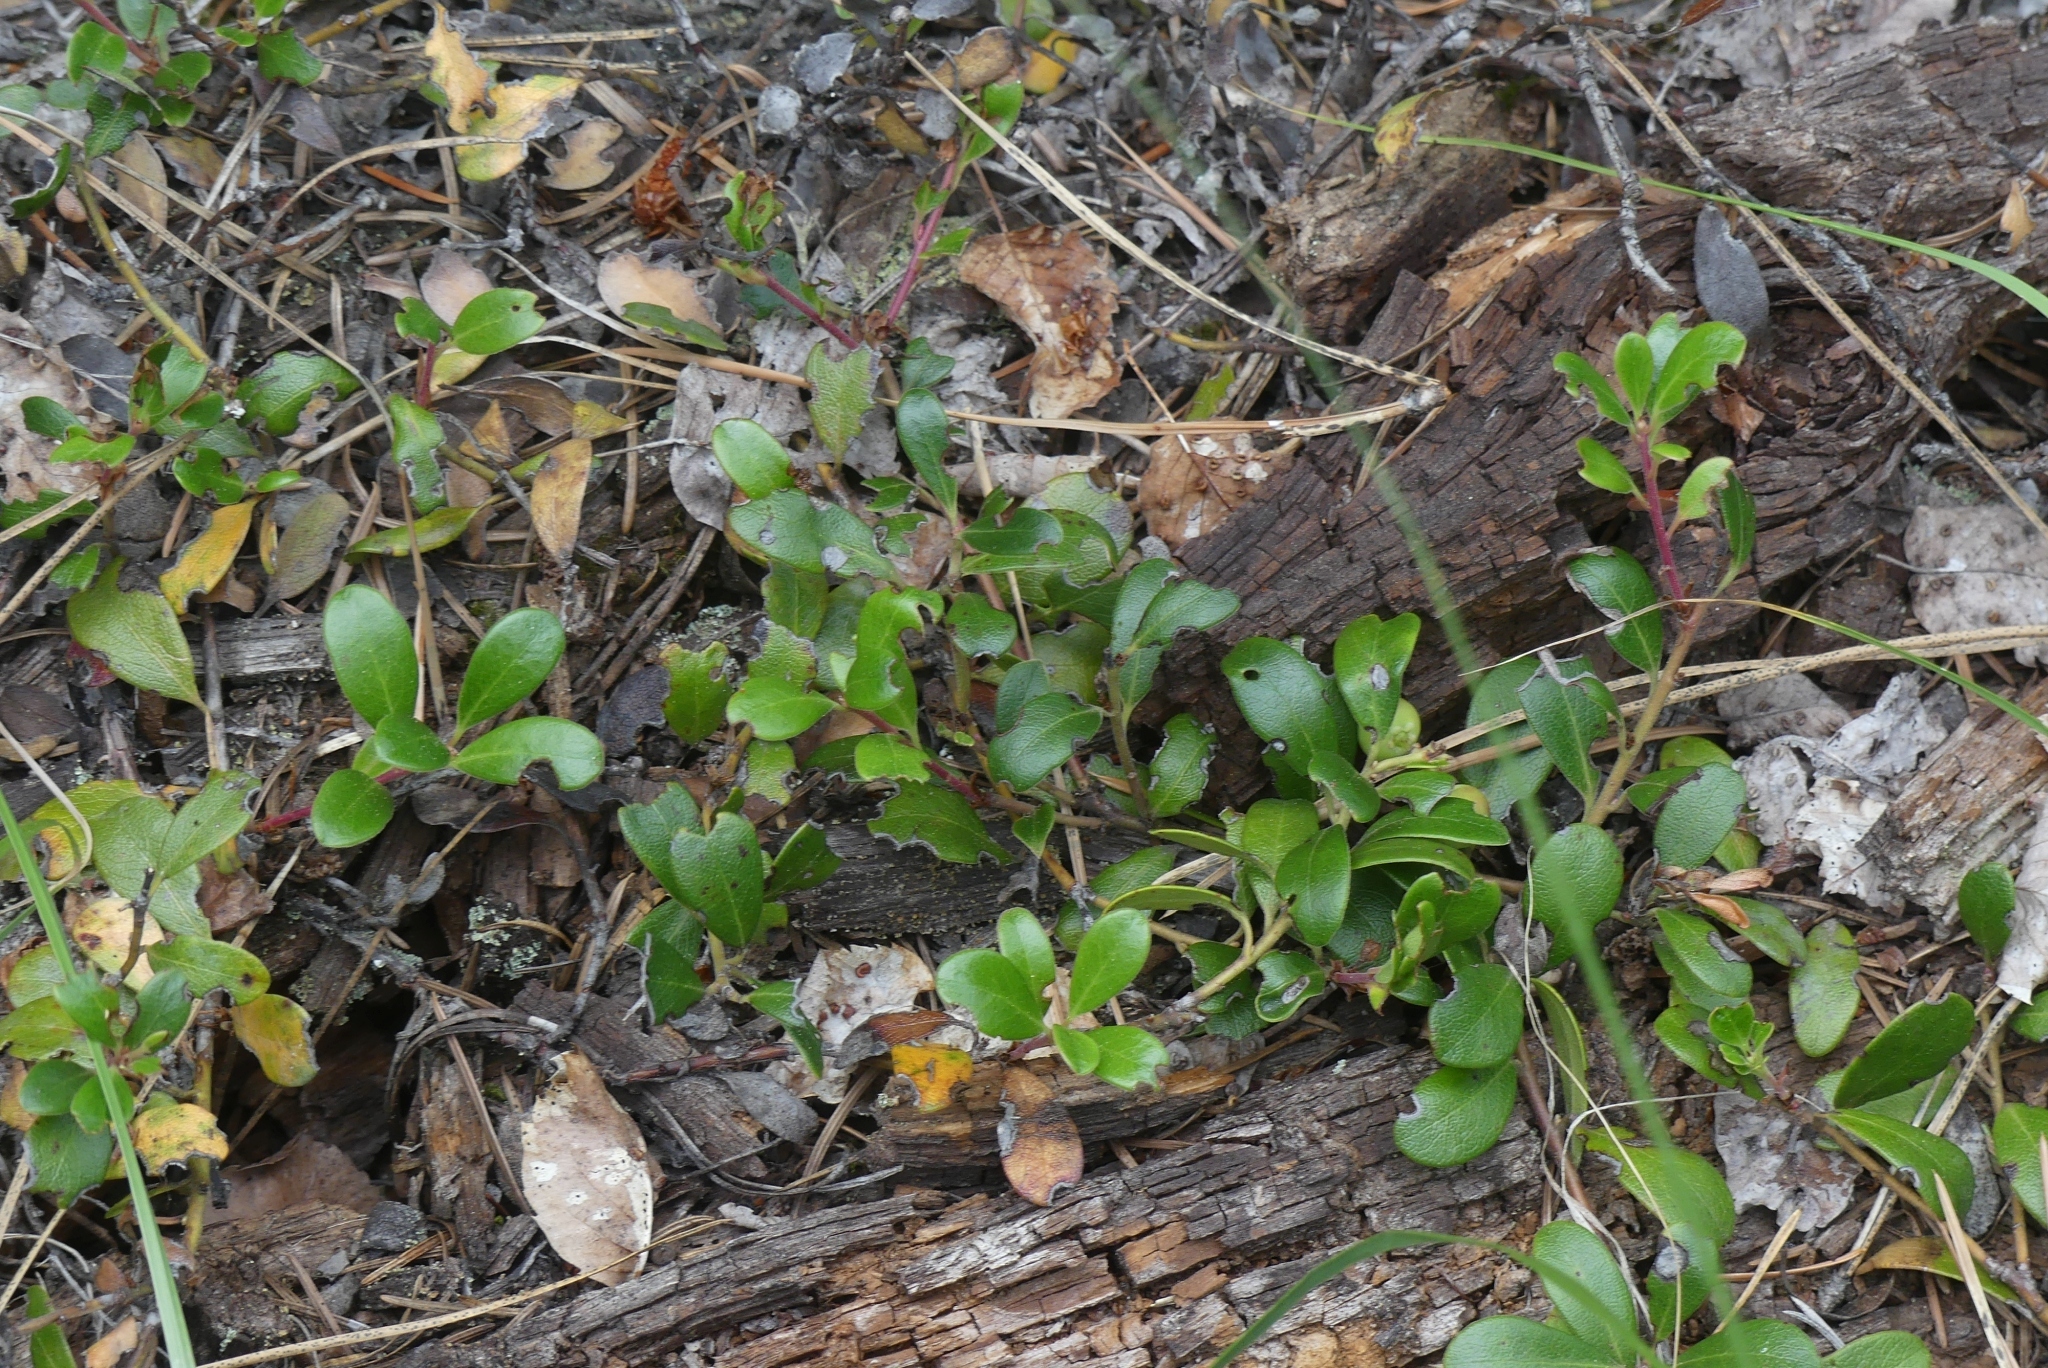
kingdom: Plantae
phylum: Tracheophyta
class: Magnoliopsida
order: Ericales
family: Ericaceae
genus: Arctostaphylos
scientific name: Arctostaphylos uva-ursi
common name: Bearberry
